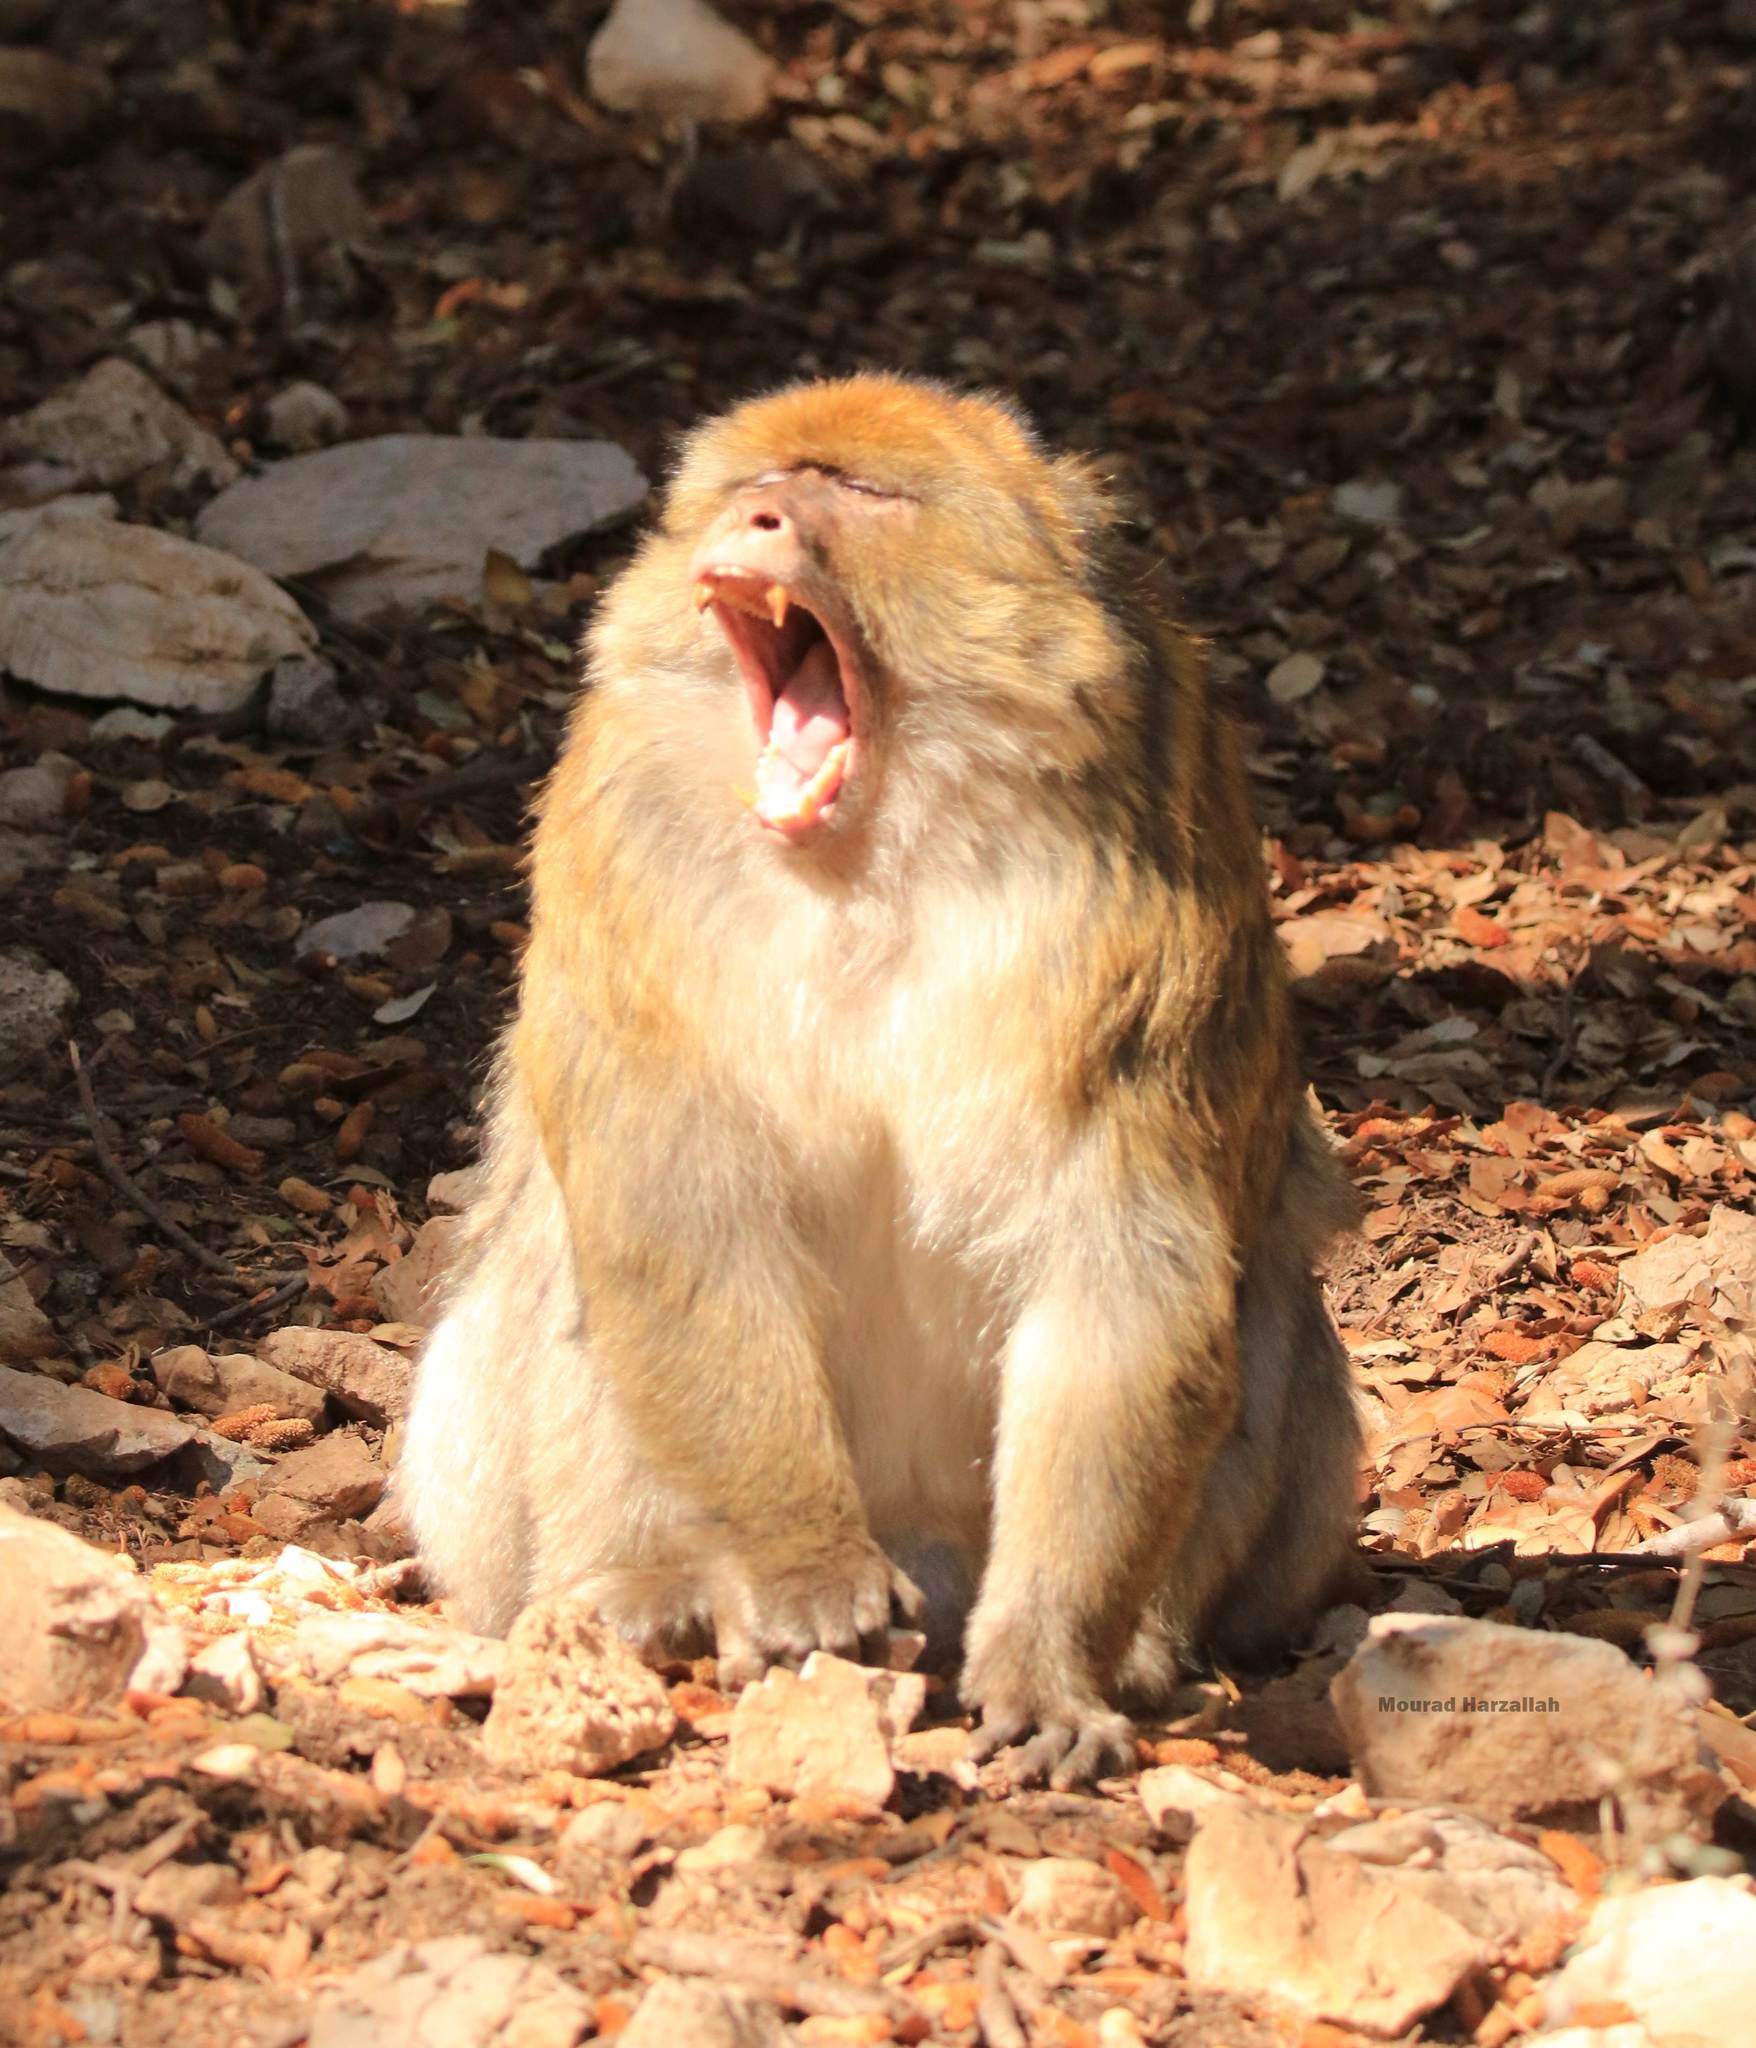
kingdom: Animalia
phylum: Chordata
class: Mammalia
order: Primates
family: Cercopithecidae
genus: Macaca
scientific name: Macaca sylvanus
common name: Barbary macaque
